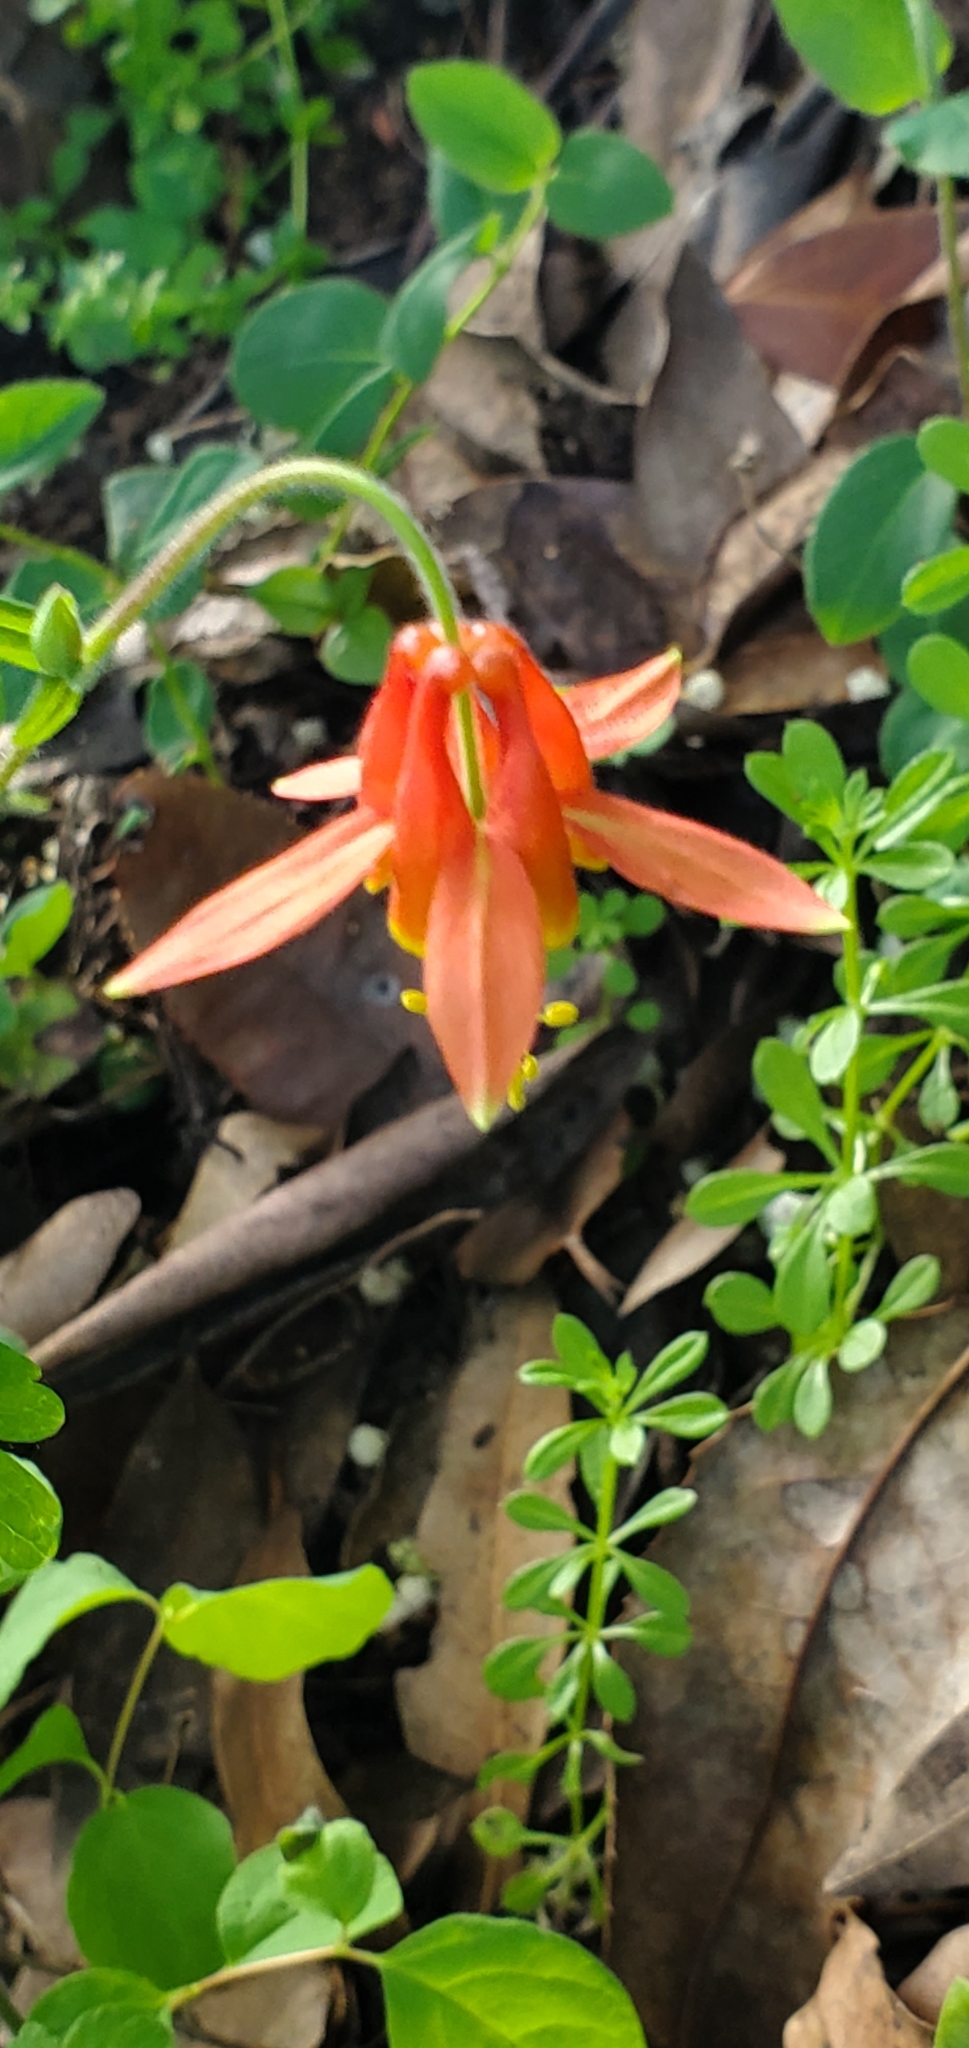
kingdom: Plantae
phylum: Tracheophyta
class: Magnoliopsida
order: Ranunculales
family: Ranunculaceae
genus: Aquilegia
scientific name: Aquilegia formosa
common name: Sitka columbine
